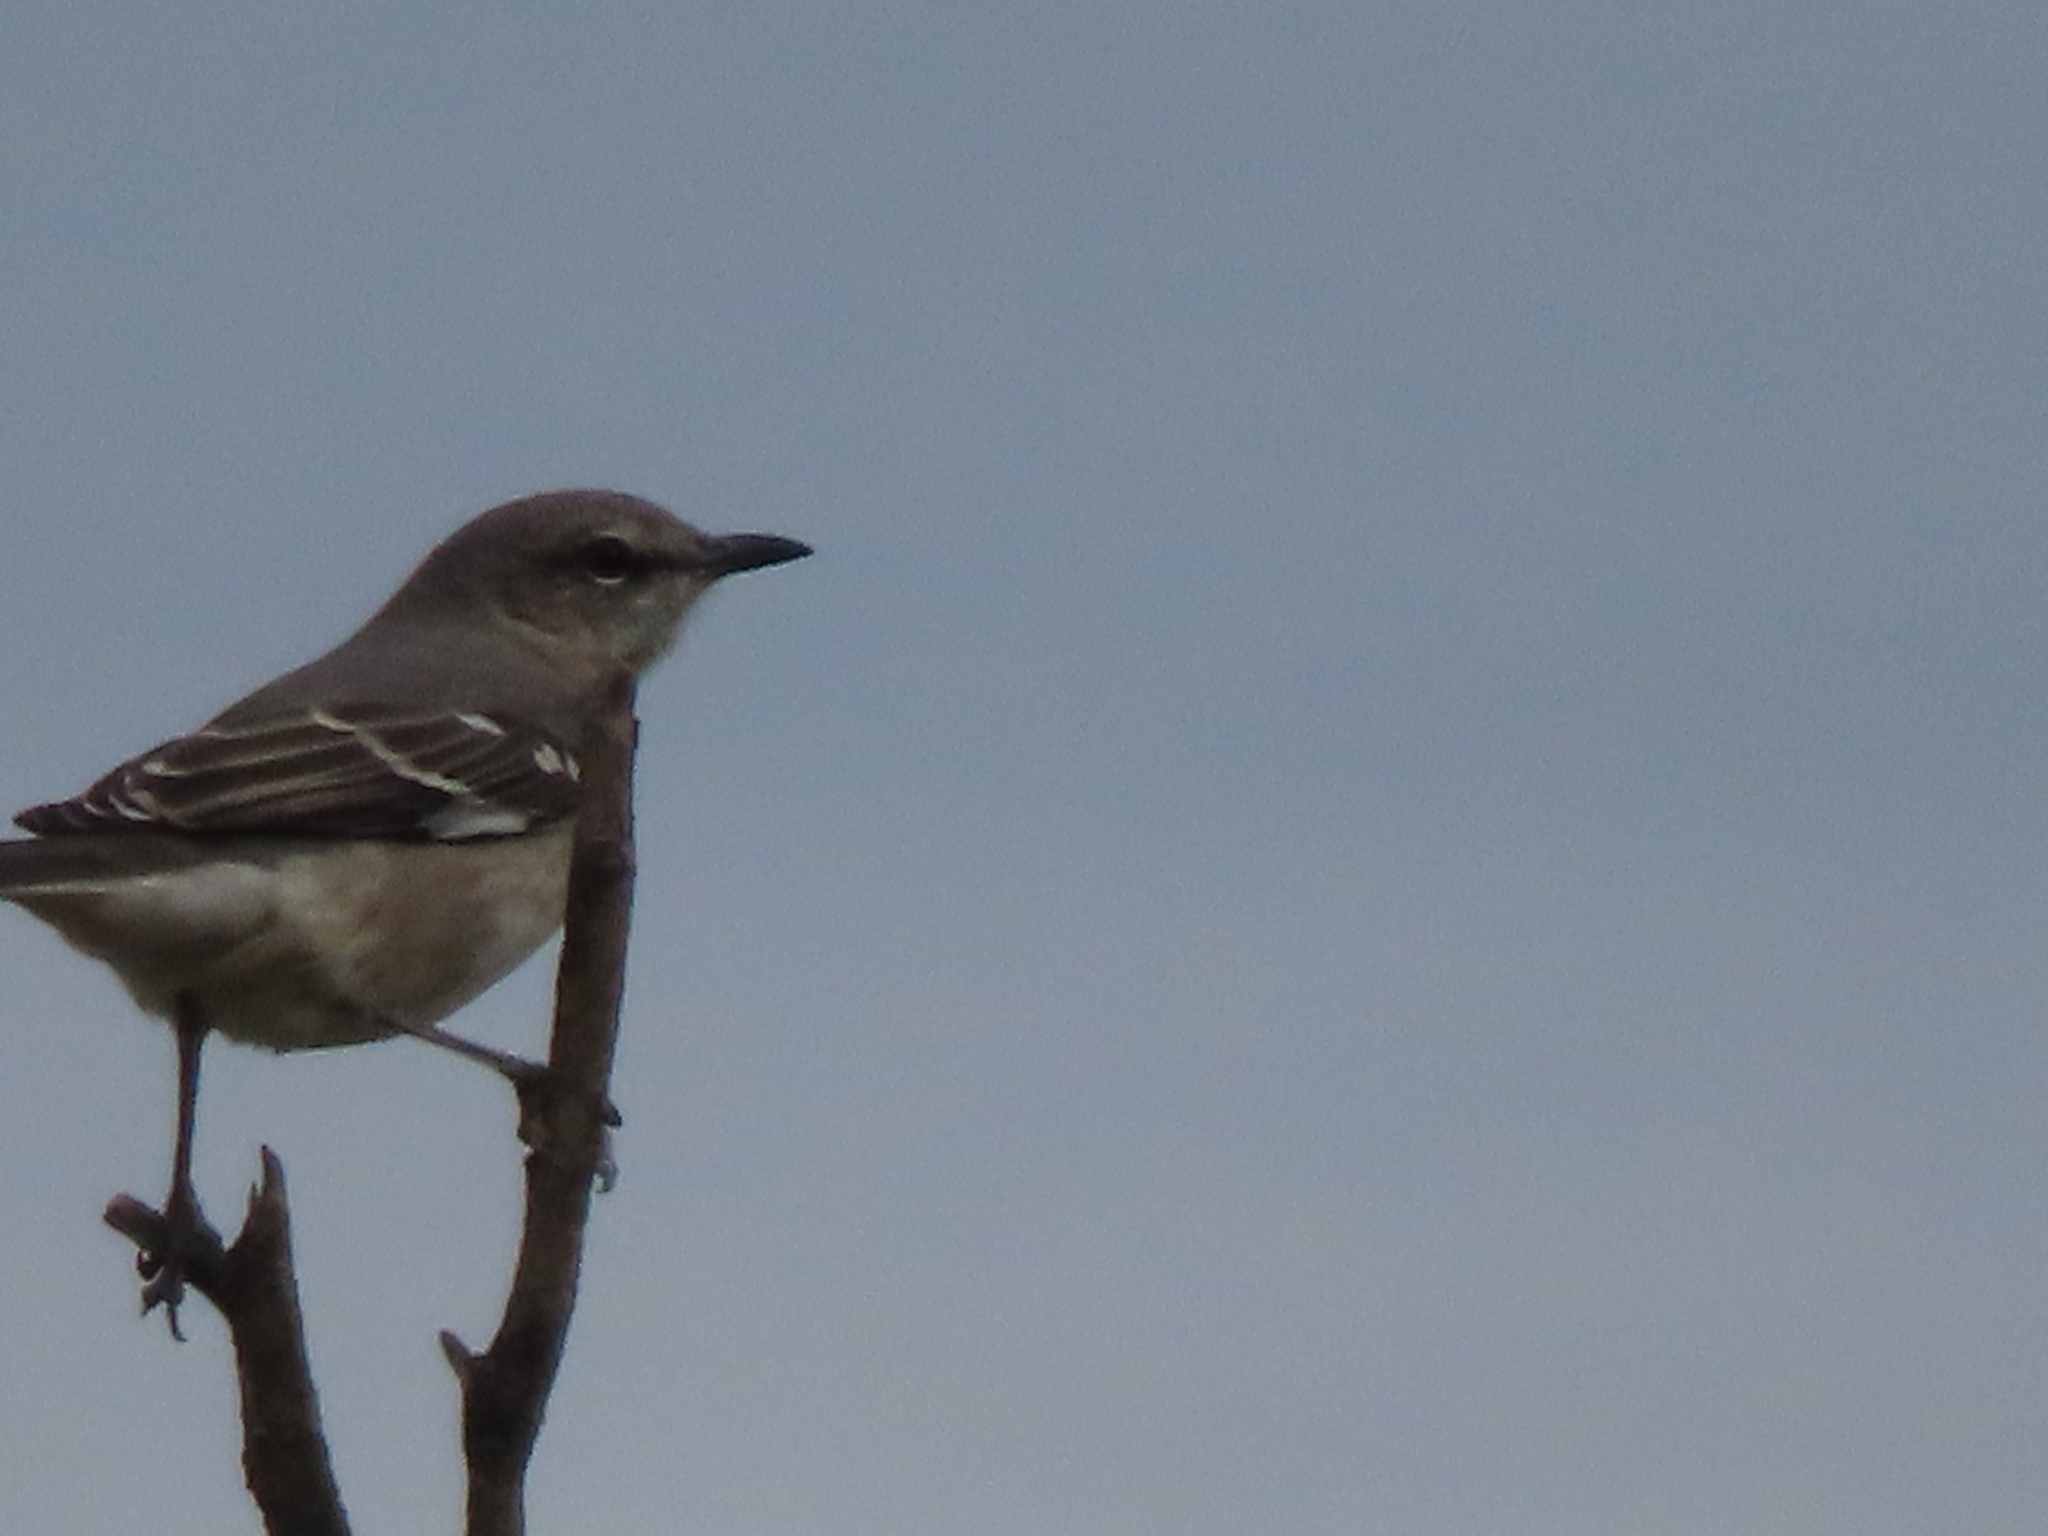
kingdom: Animalia
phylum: Chordata
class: Aves
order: Passeriformes
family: Mimidae
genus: Mimus
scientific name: Mimus polyglottos
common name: Northern mockingbird
